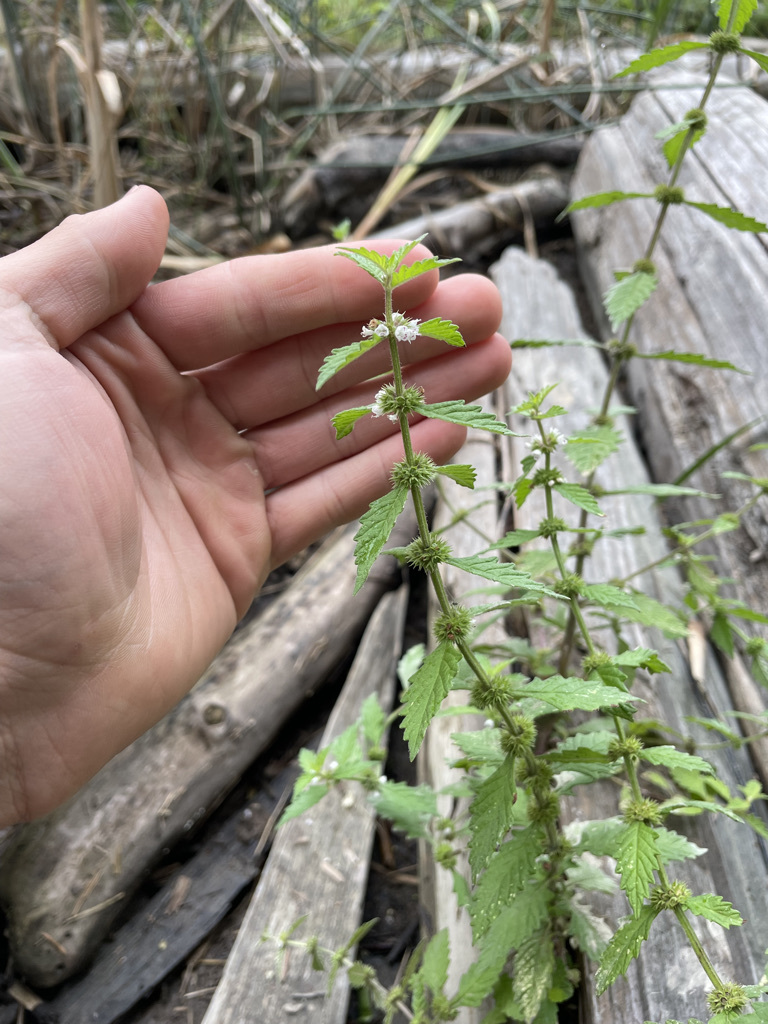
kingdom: Plantae
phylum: Tracheophyta
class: Magnoliopsida
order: Lamiales
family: Lamiaceae
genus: Lycopus
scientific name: Lycopus europaeus
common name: European bugleweed
